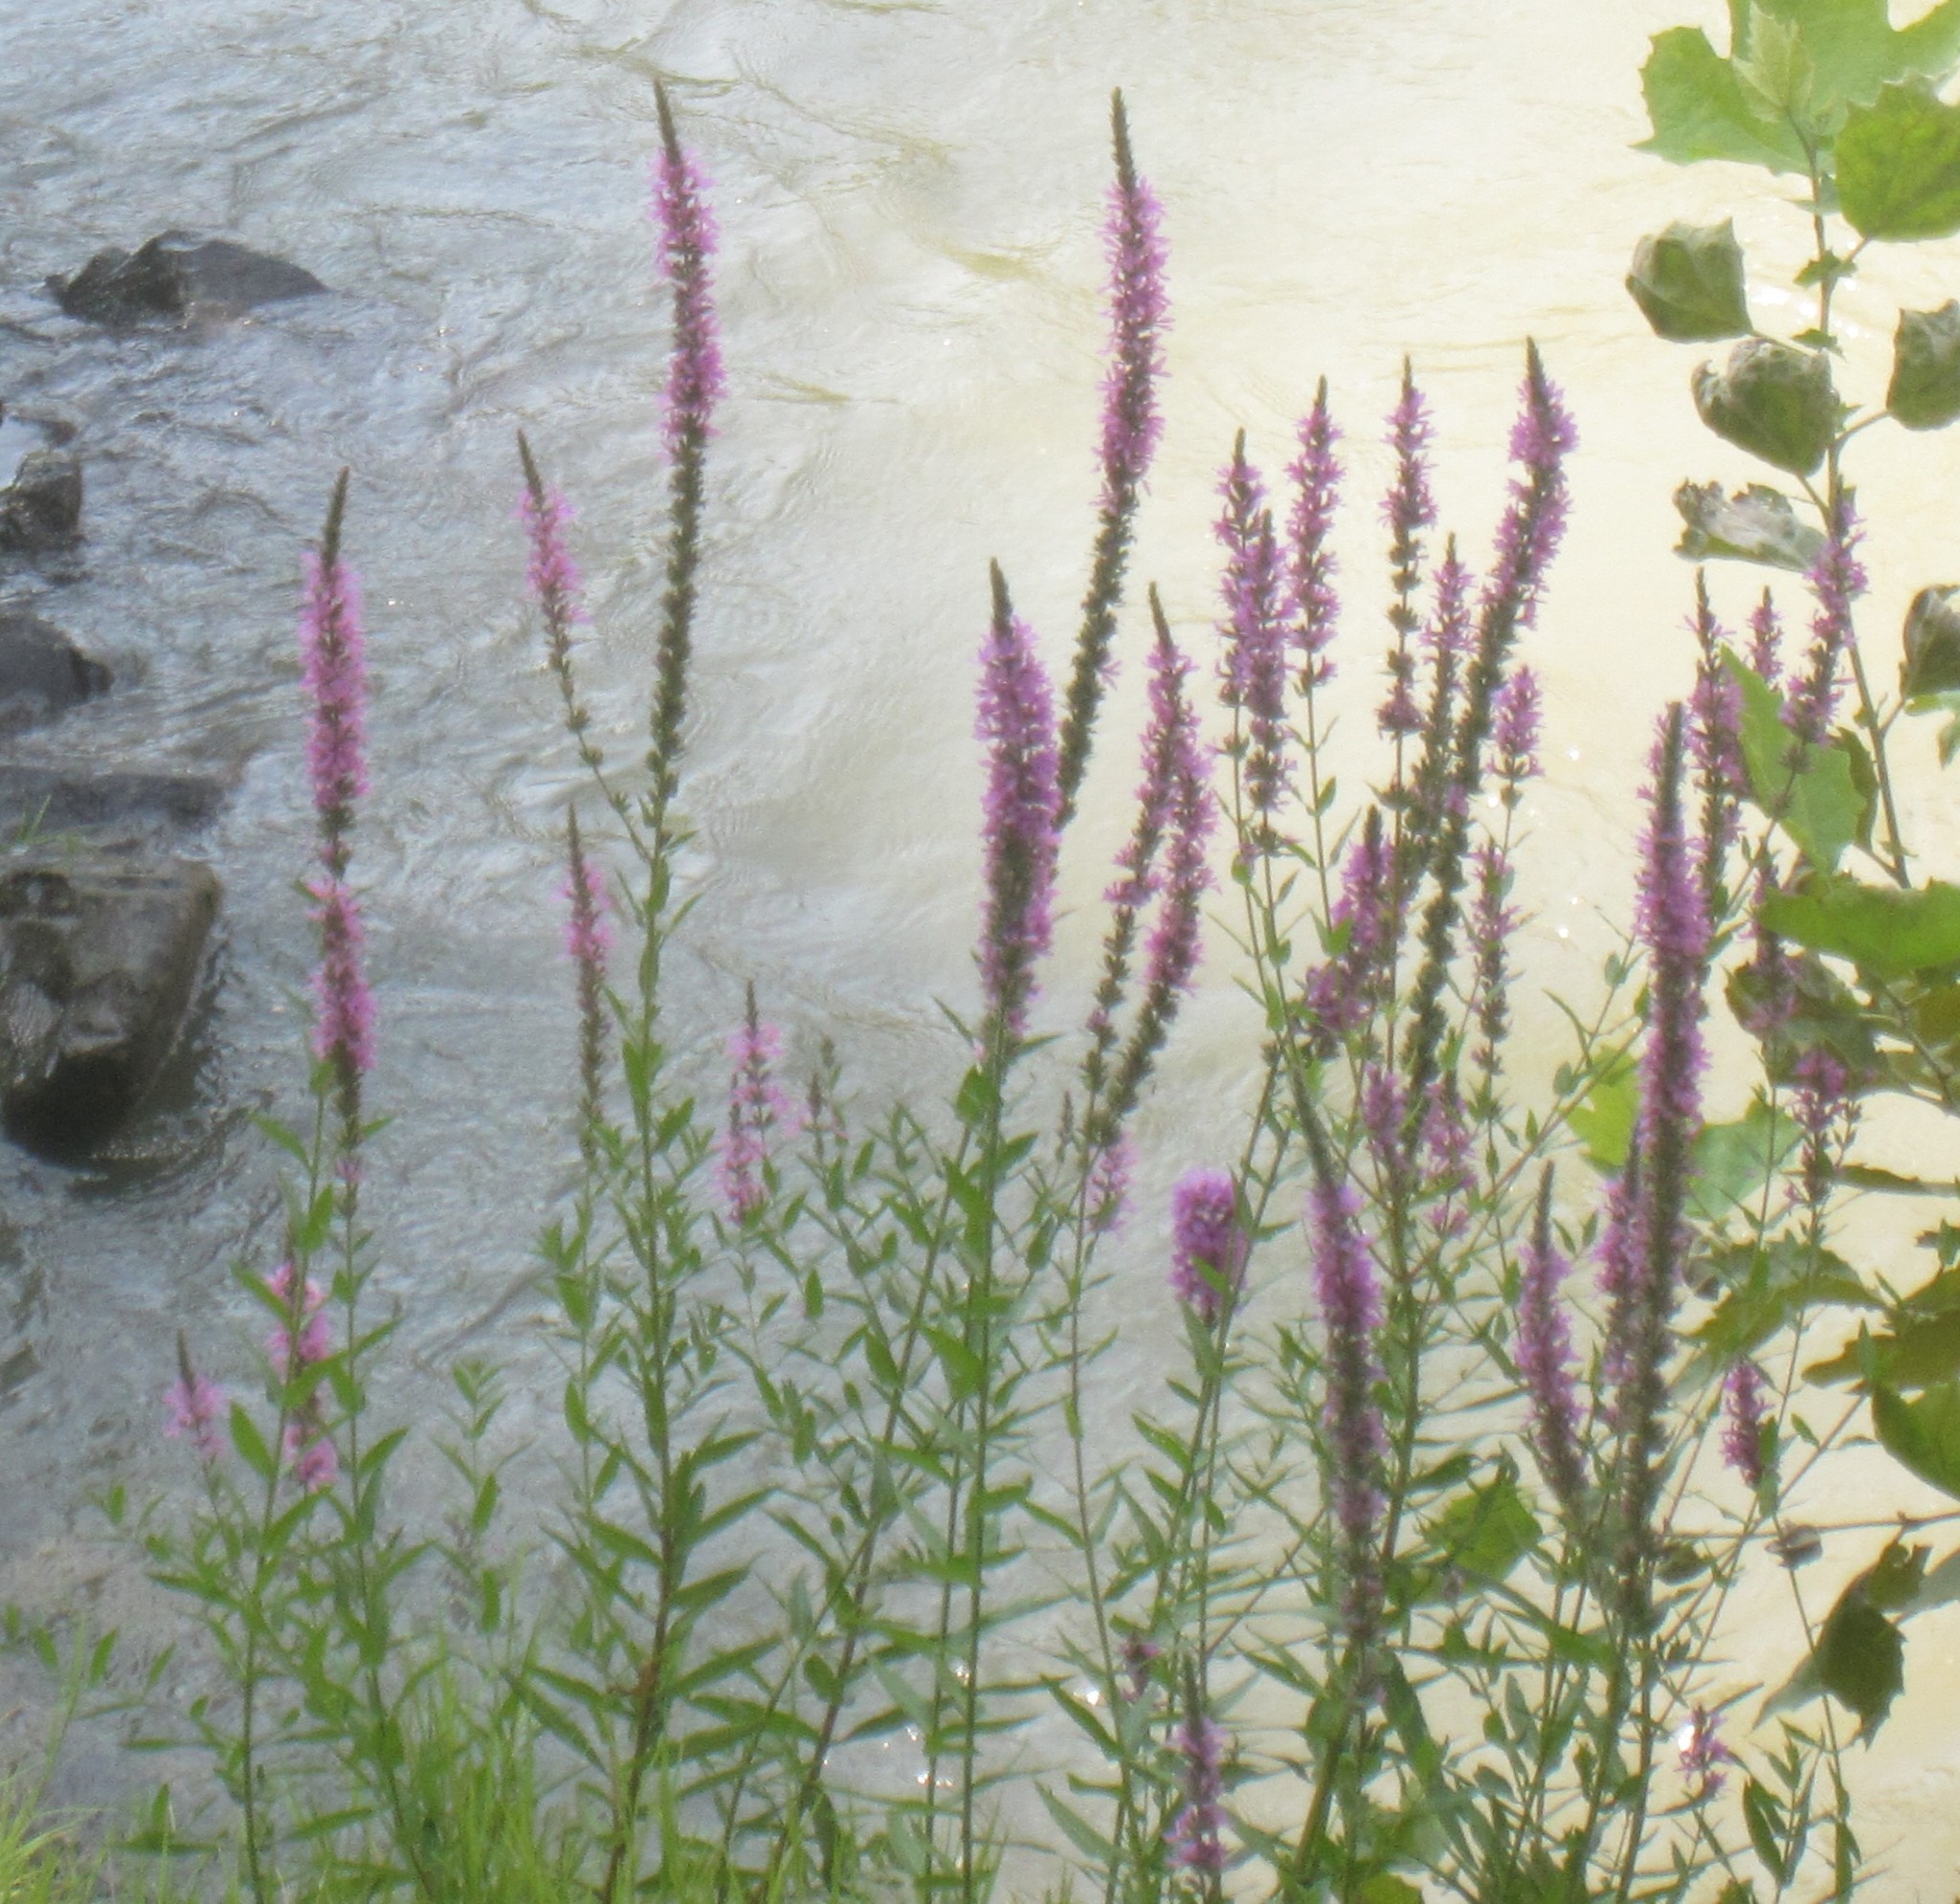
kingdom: Plantae
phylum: Tracheophyta
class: Magnoliopsida
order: Myrtales
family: Lythraceae
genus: Lythrum
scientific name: Lythrum salicaria
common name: Purple loosestrife
